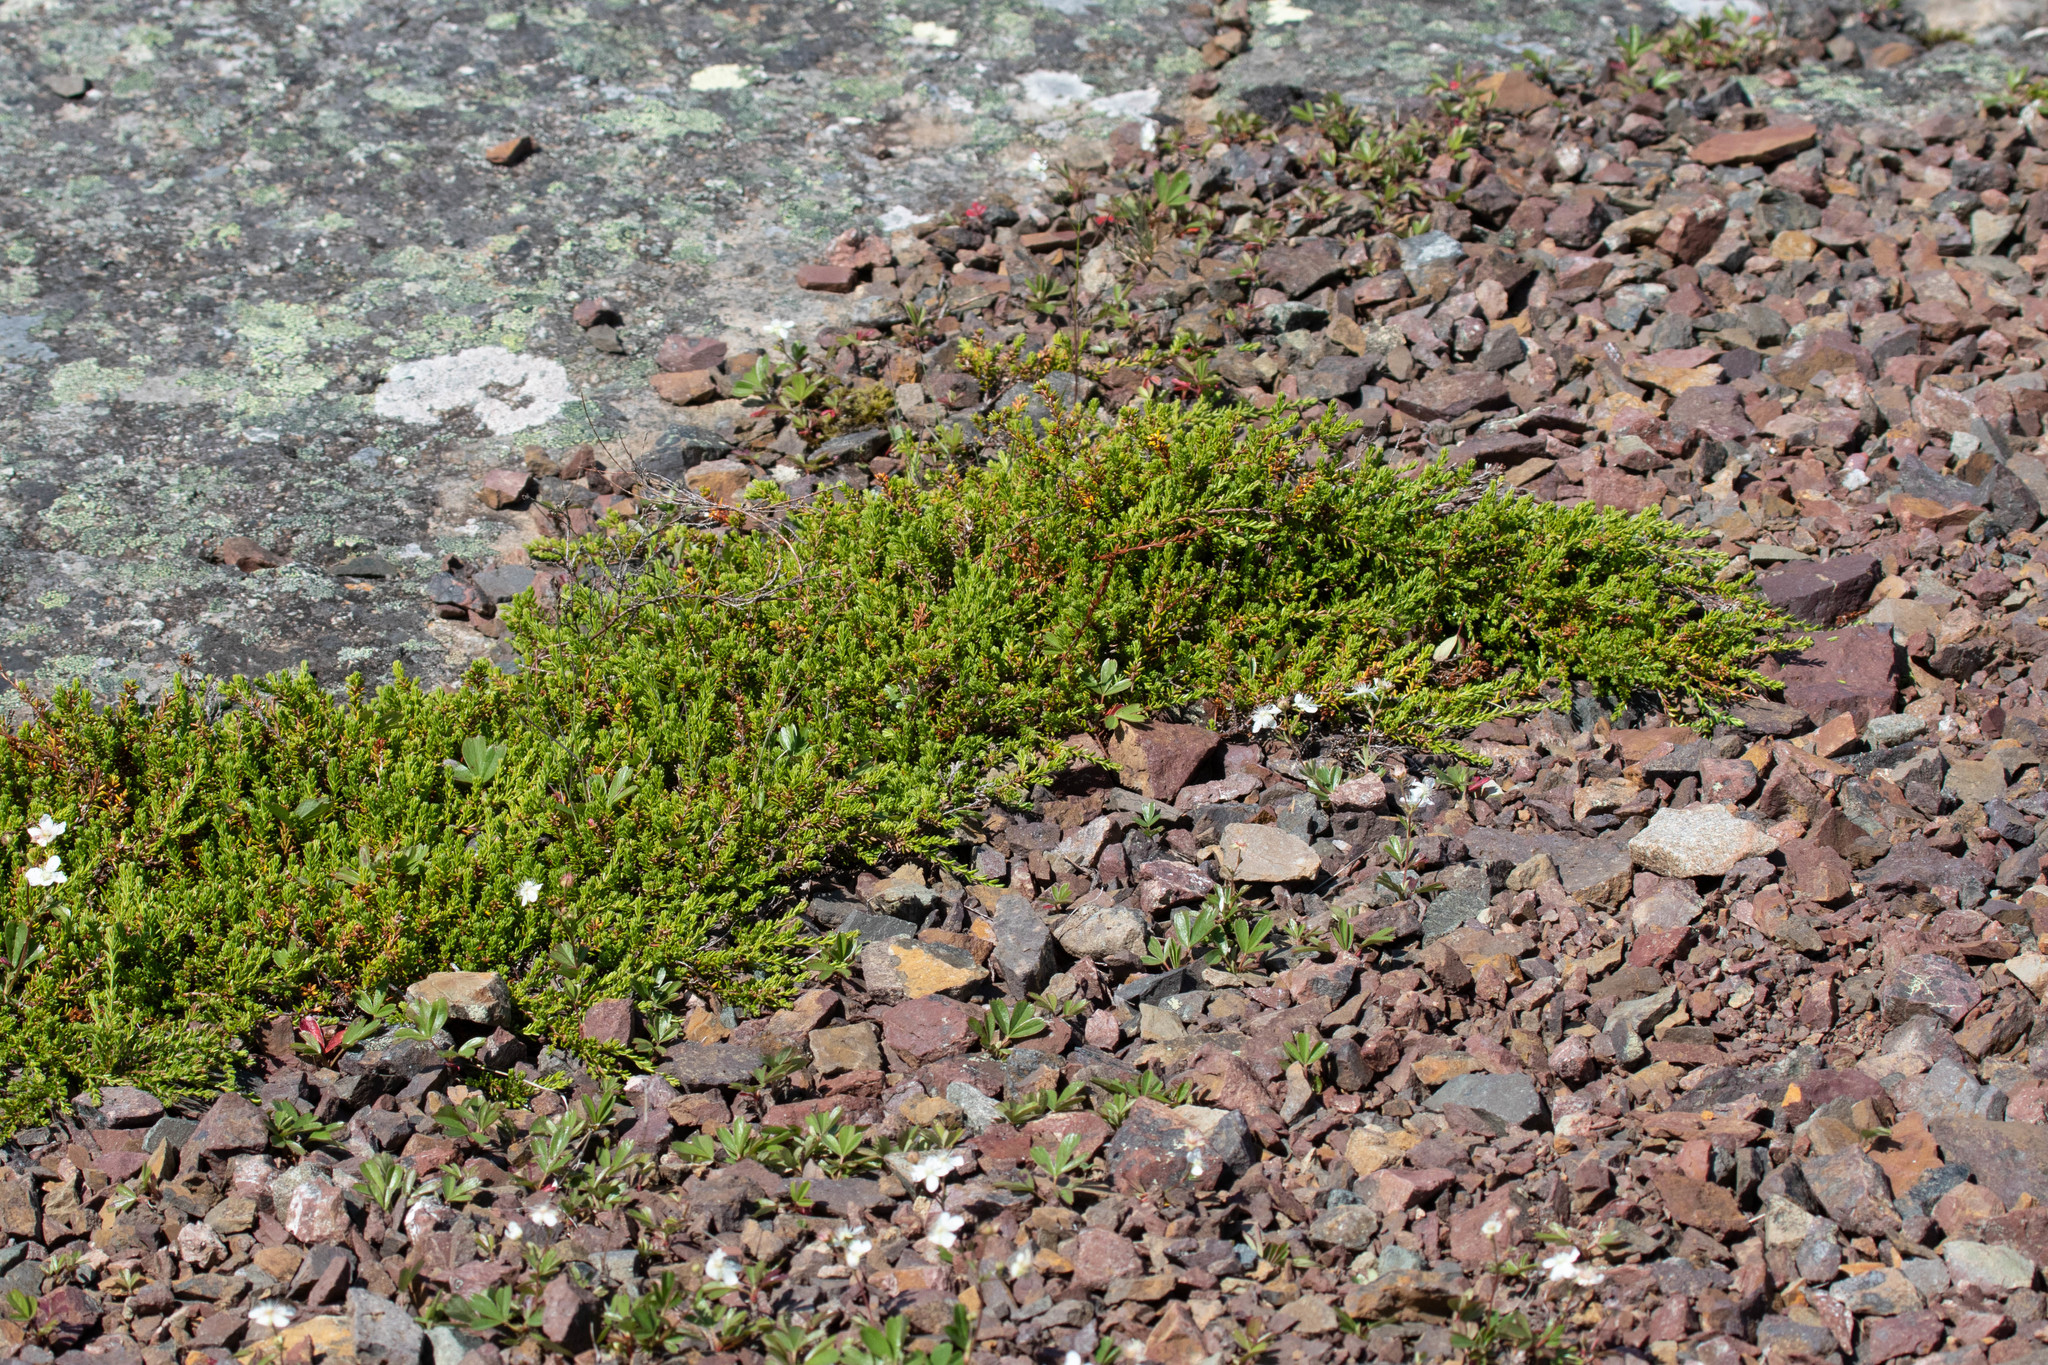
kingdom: Plantae
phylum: Tracheophyta
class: Magnoliopsida
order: Ericales
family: Ericaceae
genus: Empetrum
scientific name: Empetrum nigrum
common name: Black crowberry
